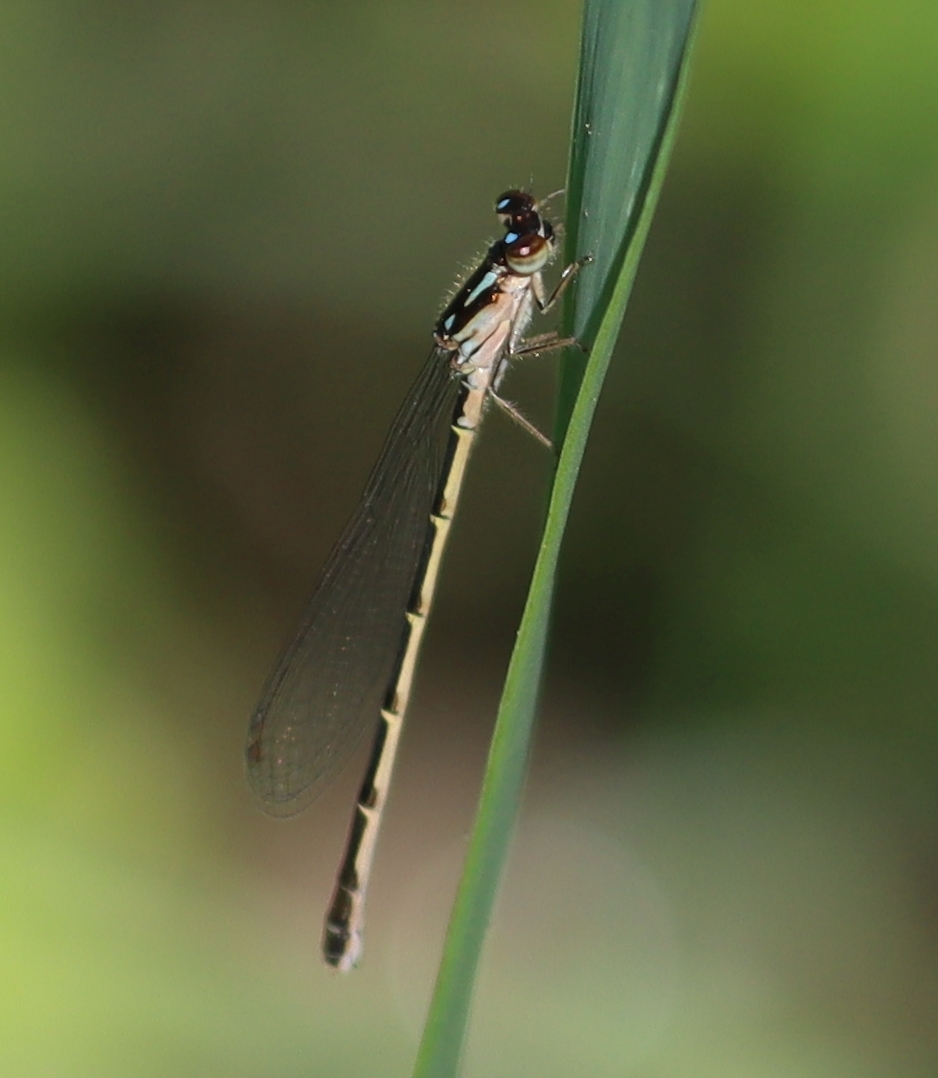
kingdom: Animalia
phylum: Arthropoda
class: Insecta
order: Odonata
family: Coenagrionidae
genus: Ischnura
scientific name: Ischnura posita
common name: Fragile forktail
